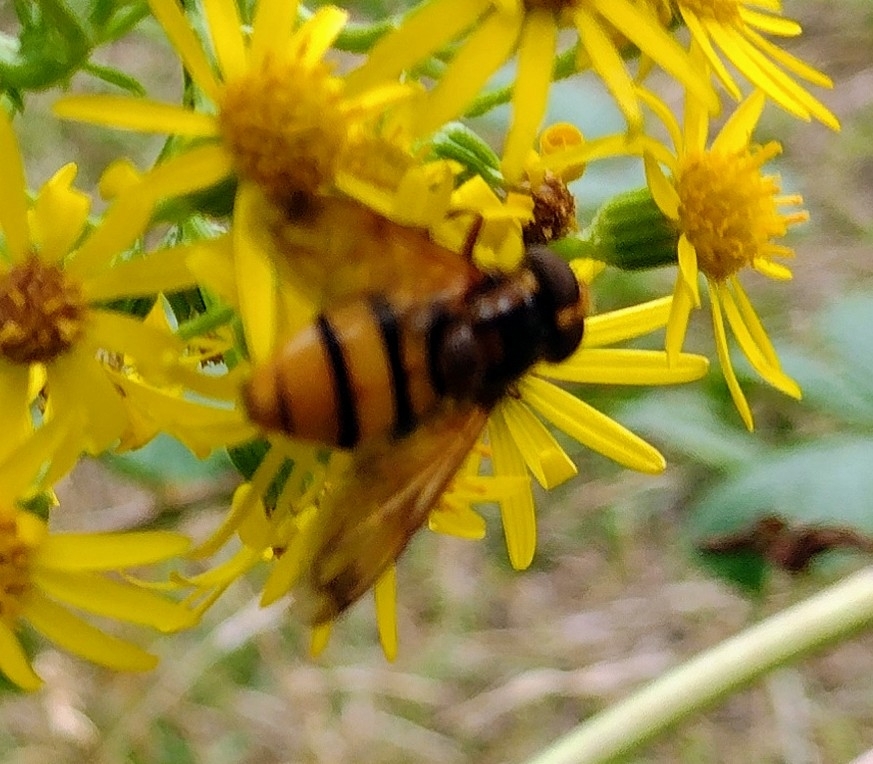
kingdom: Animalia
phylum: Arthropoda
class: Insecta
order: Diptera
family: Syrphidae
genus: Volucella
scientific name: Volucella inanis
